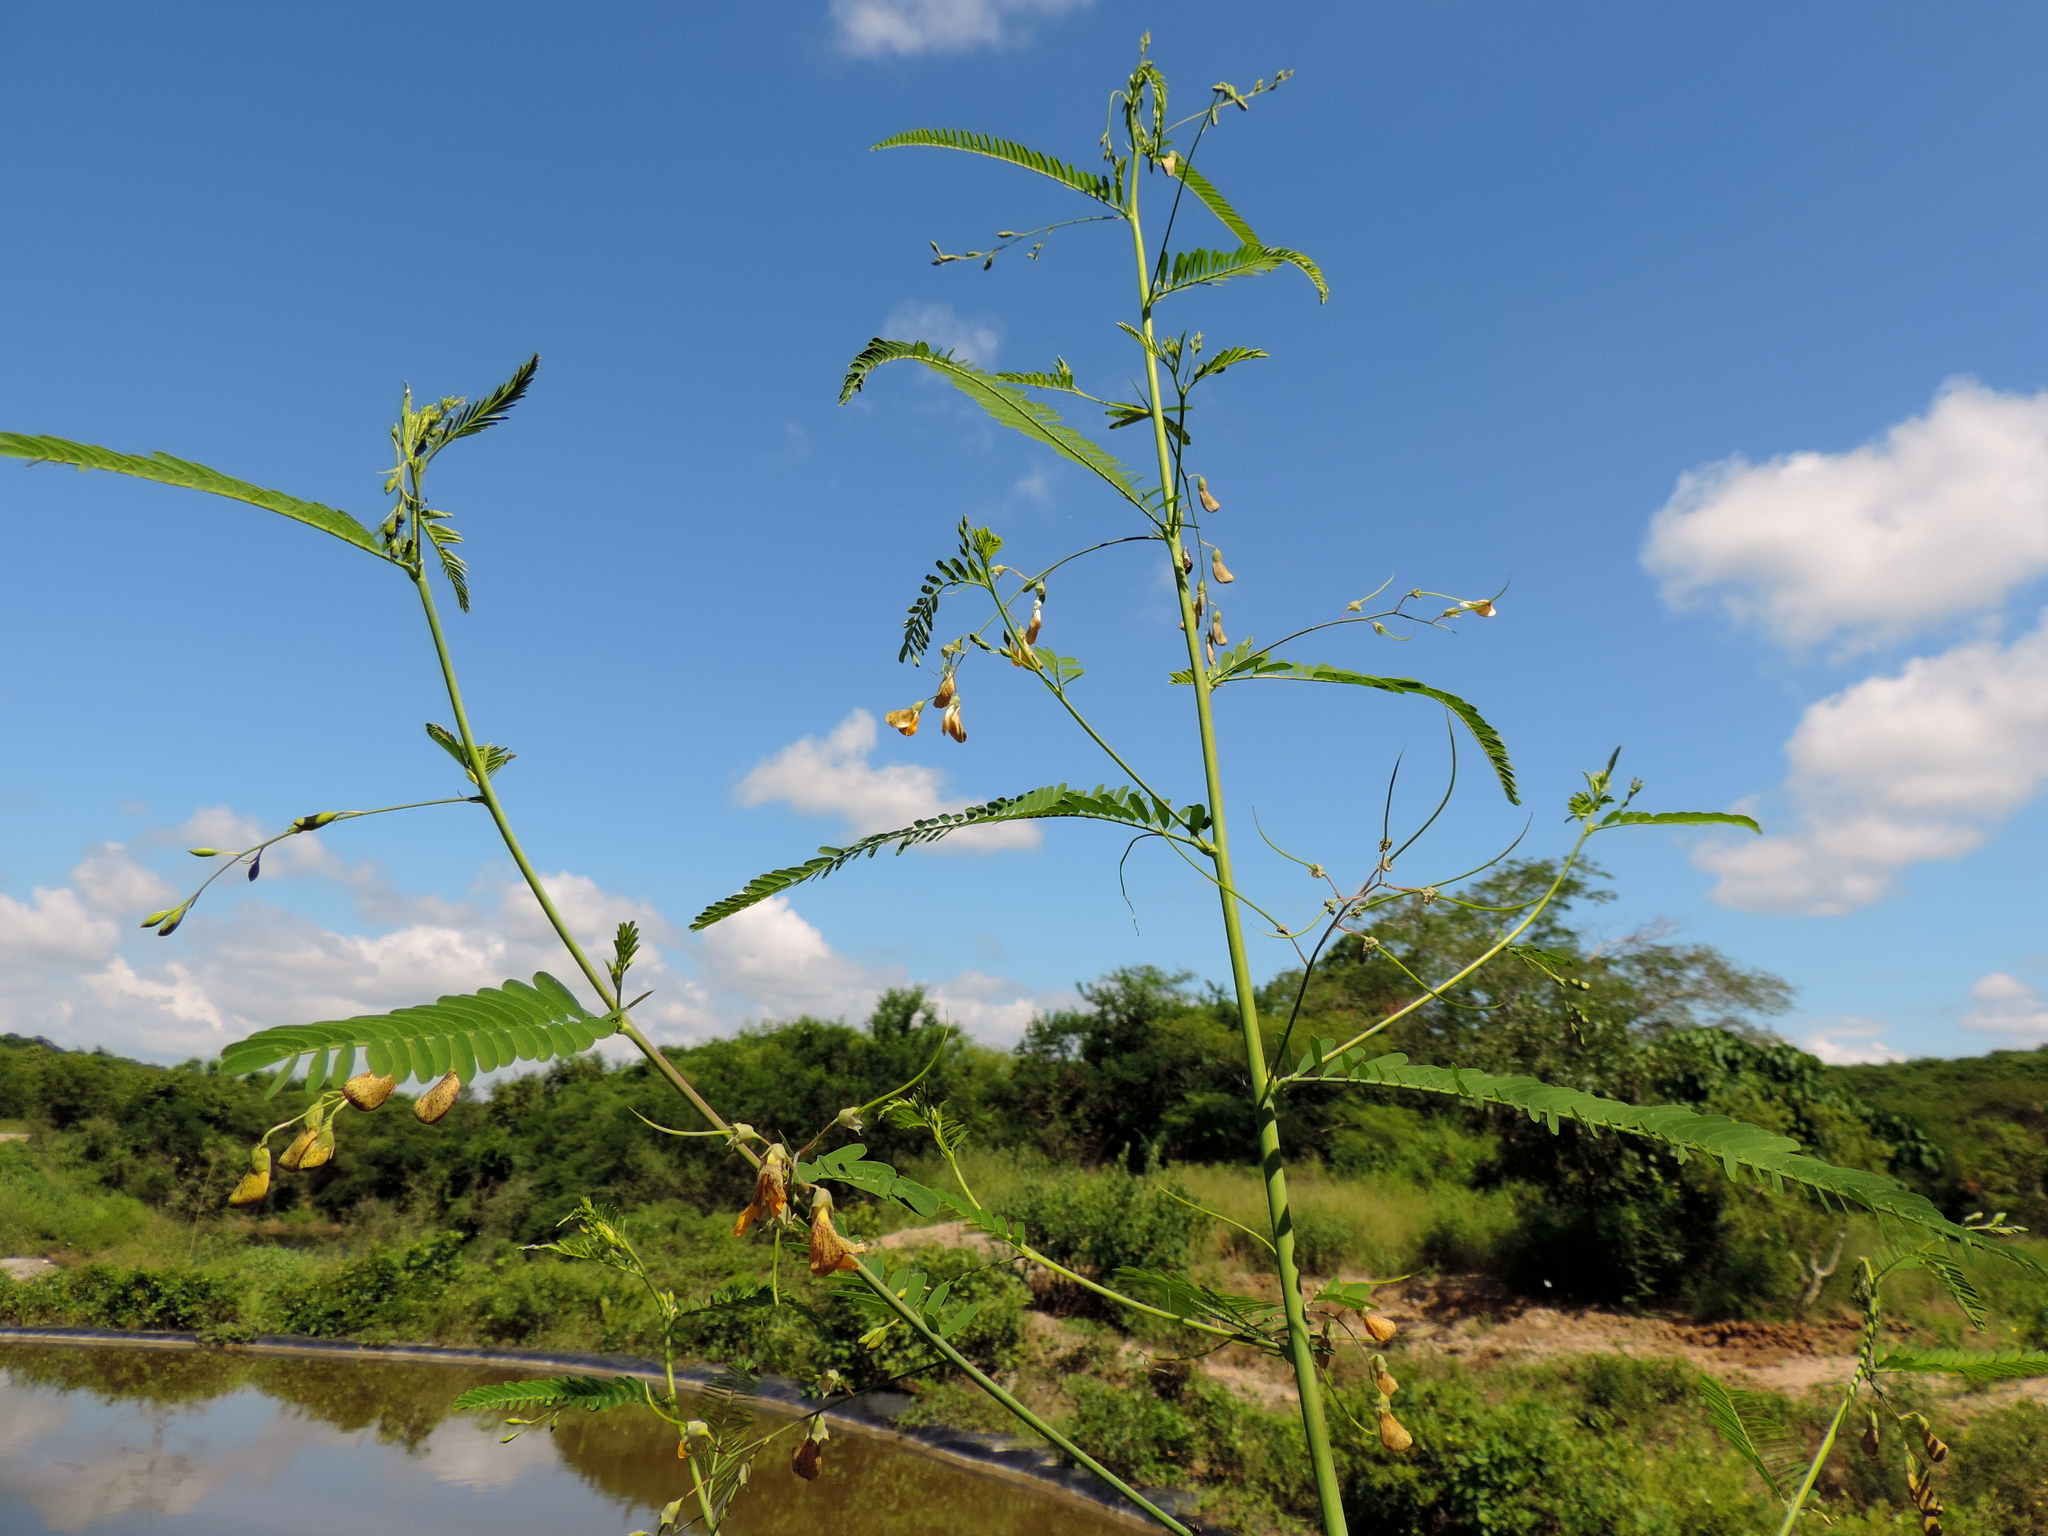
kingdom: Plantae
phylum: Tracheophyta
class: Magnoliopsida
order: Fabales
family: Fabaceae
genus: Sesbania
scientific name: Sesbania herbacea
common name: Bigpod sesbania
